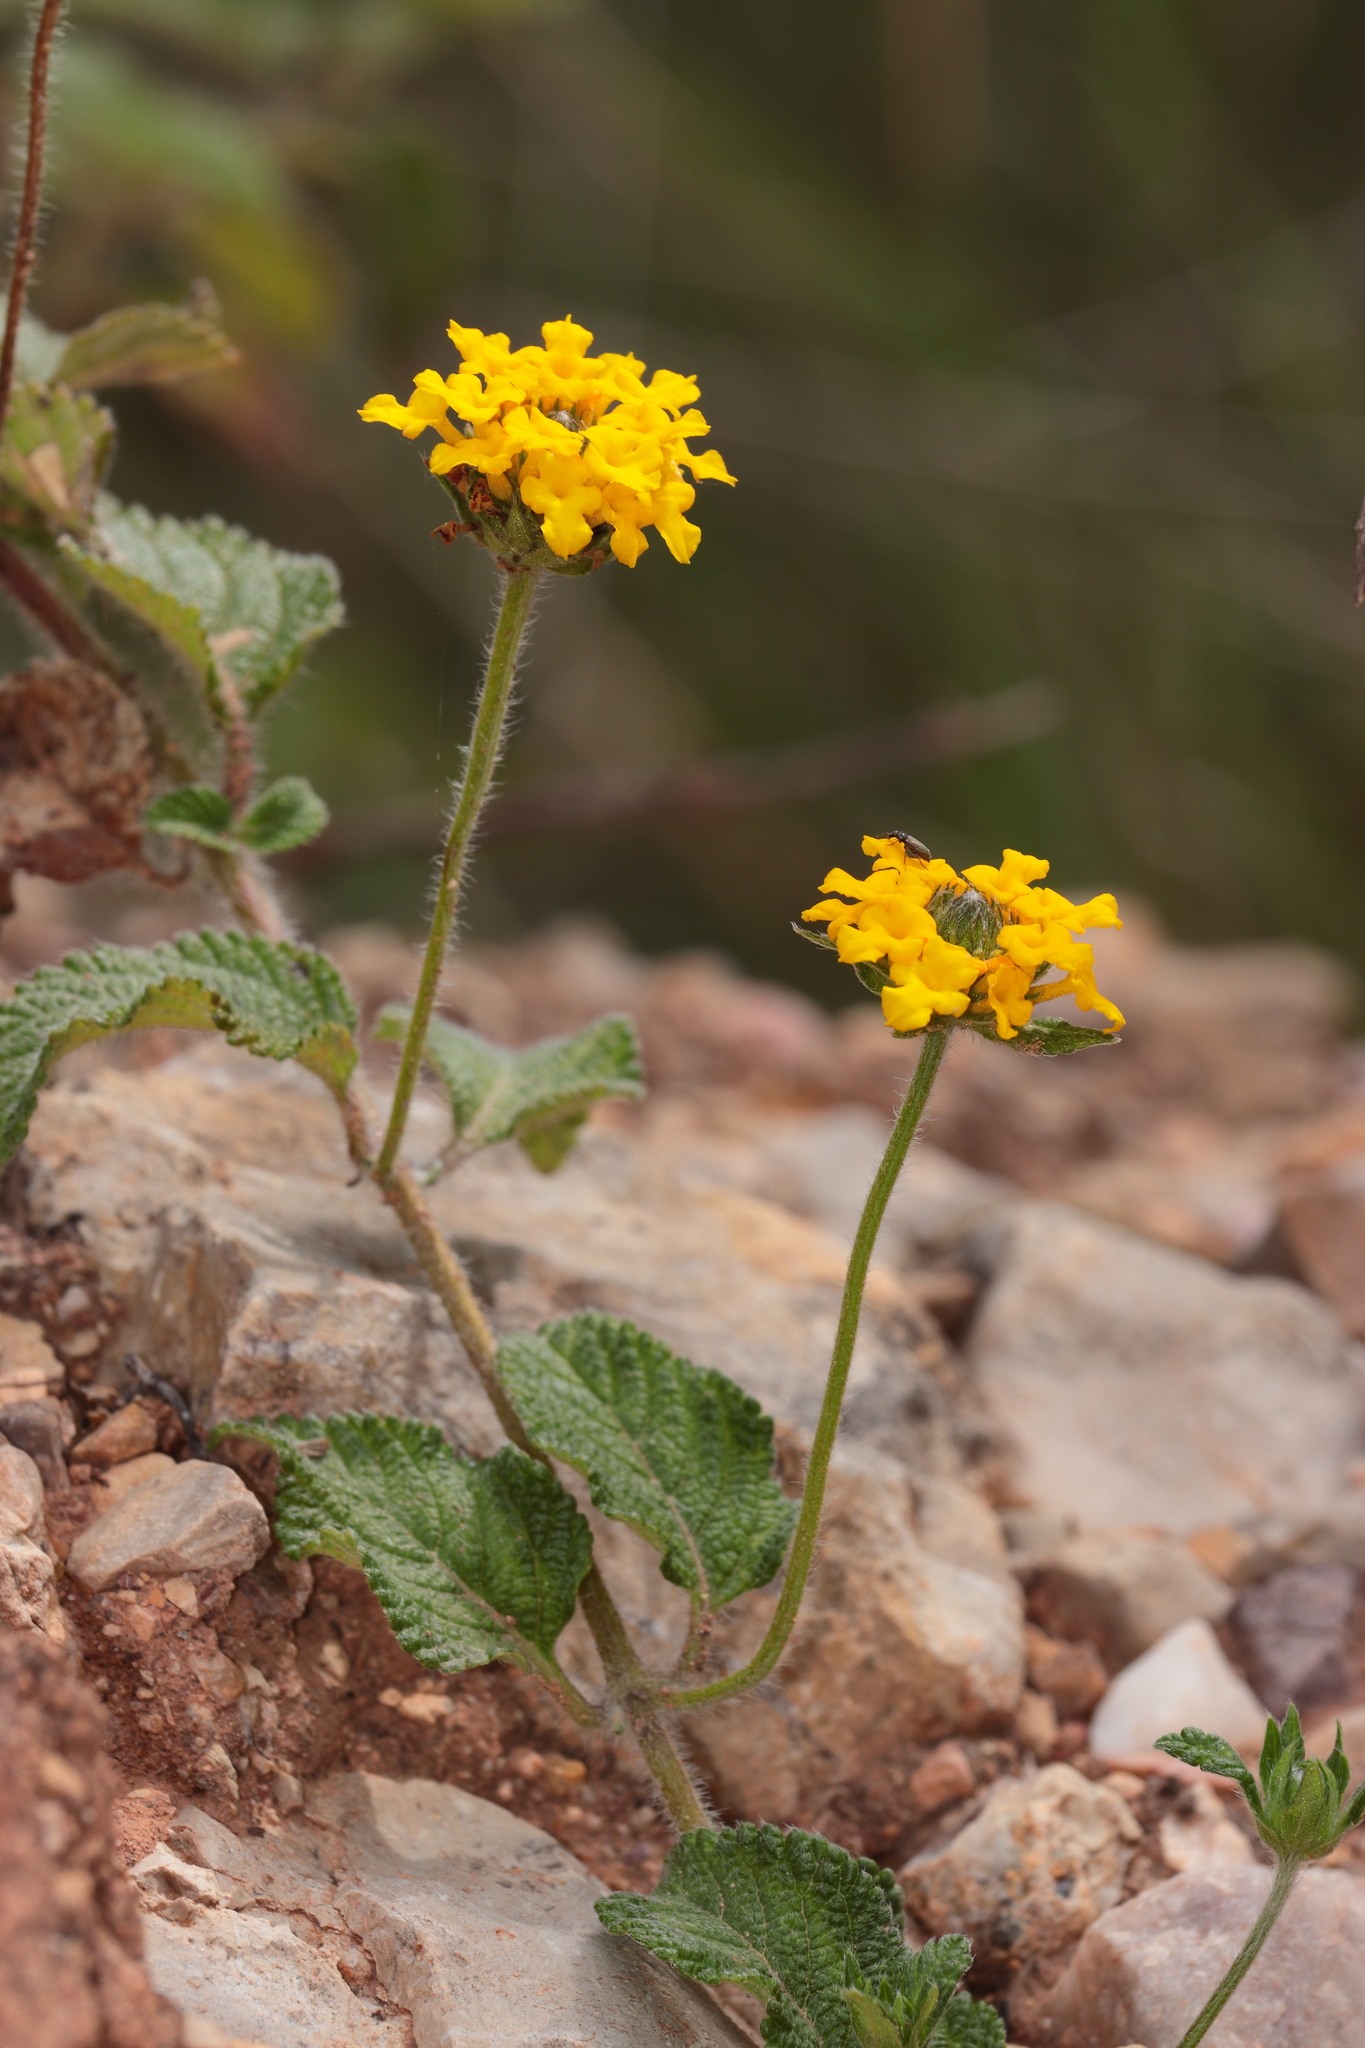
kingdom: Plantae
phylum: Tracheophyta
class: Magnoliopsida
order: Lamiales
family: Verbenaceae
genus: Lantana
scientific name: Lantana reptans
